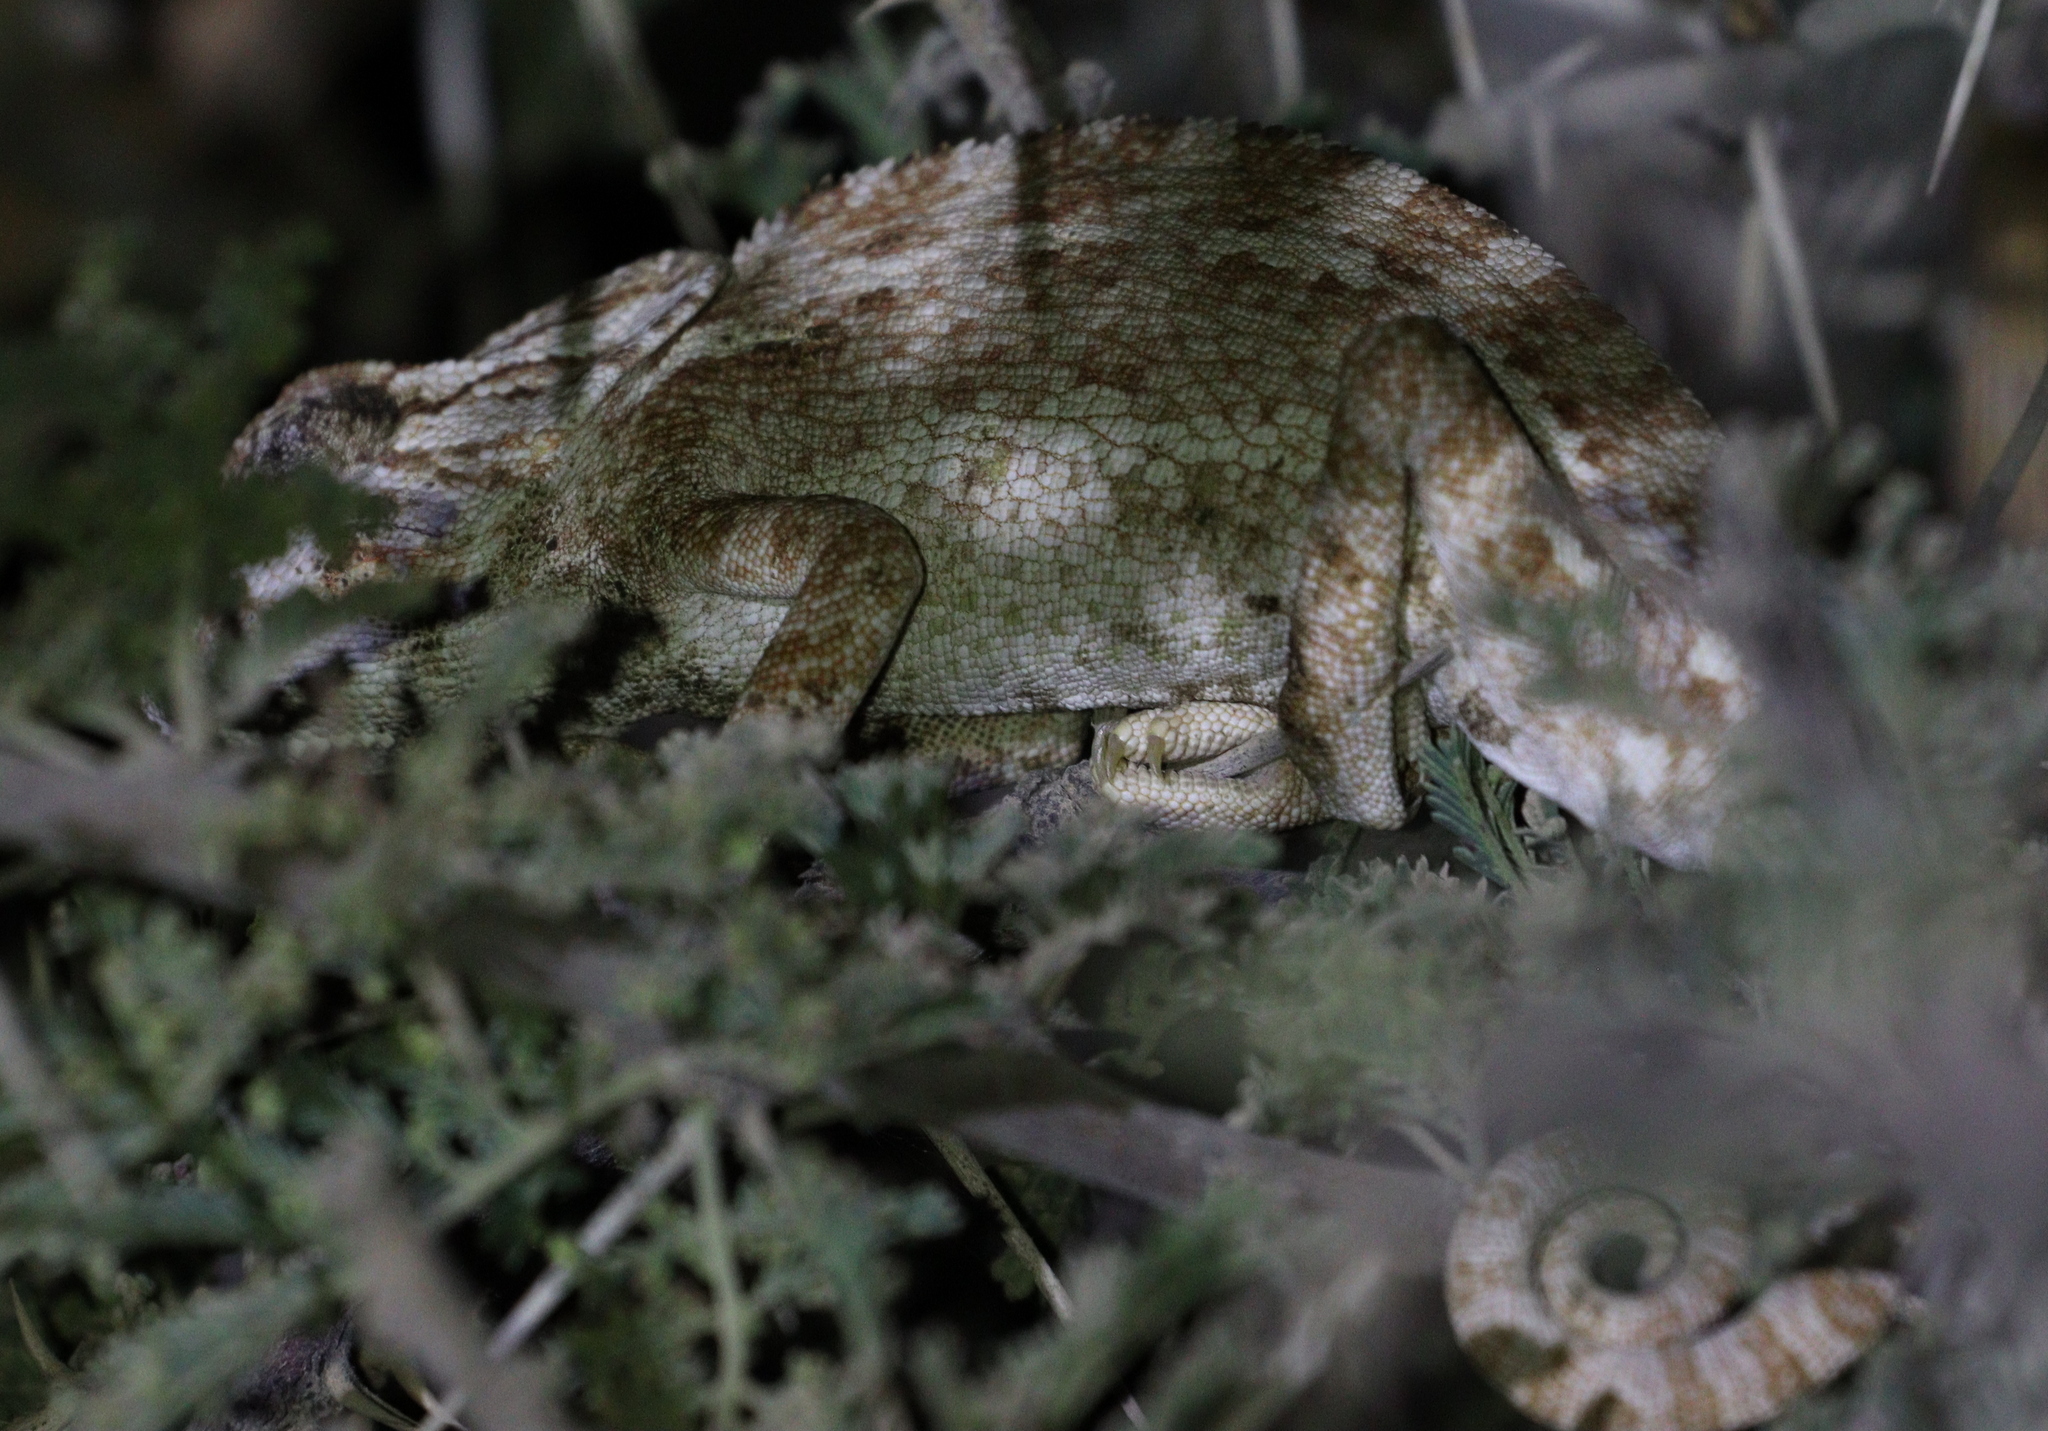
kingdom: Animalia
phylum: Chordata
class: Squamata
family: Chamaeleonidae
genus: Chamaeleo
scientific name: Chamaeleo chamaeleon
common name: Mediterranean chameleon
